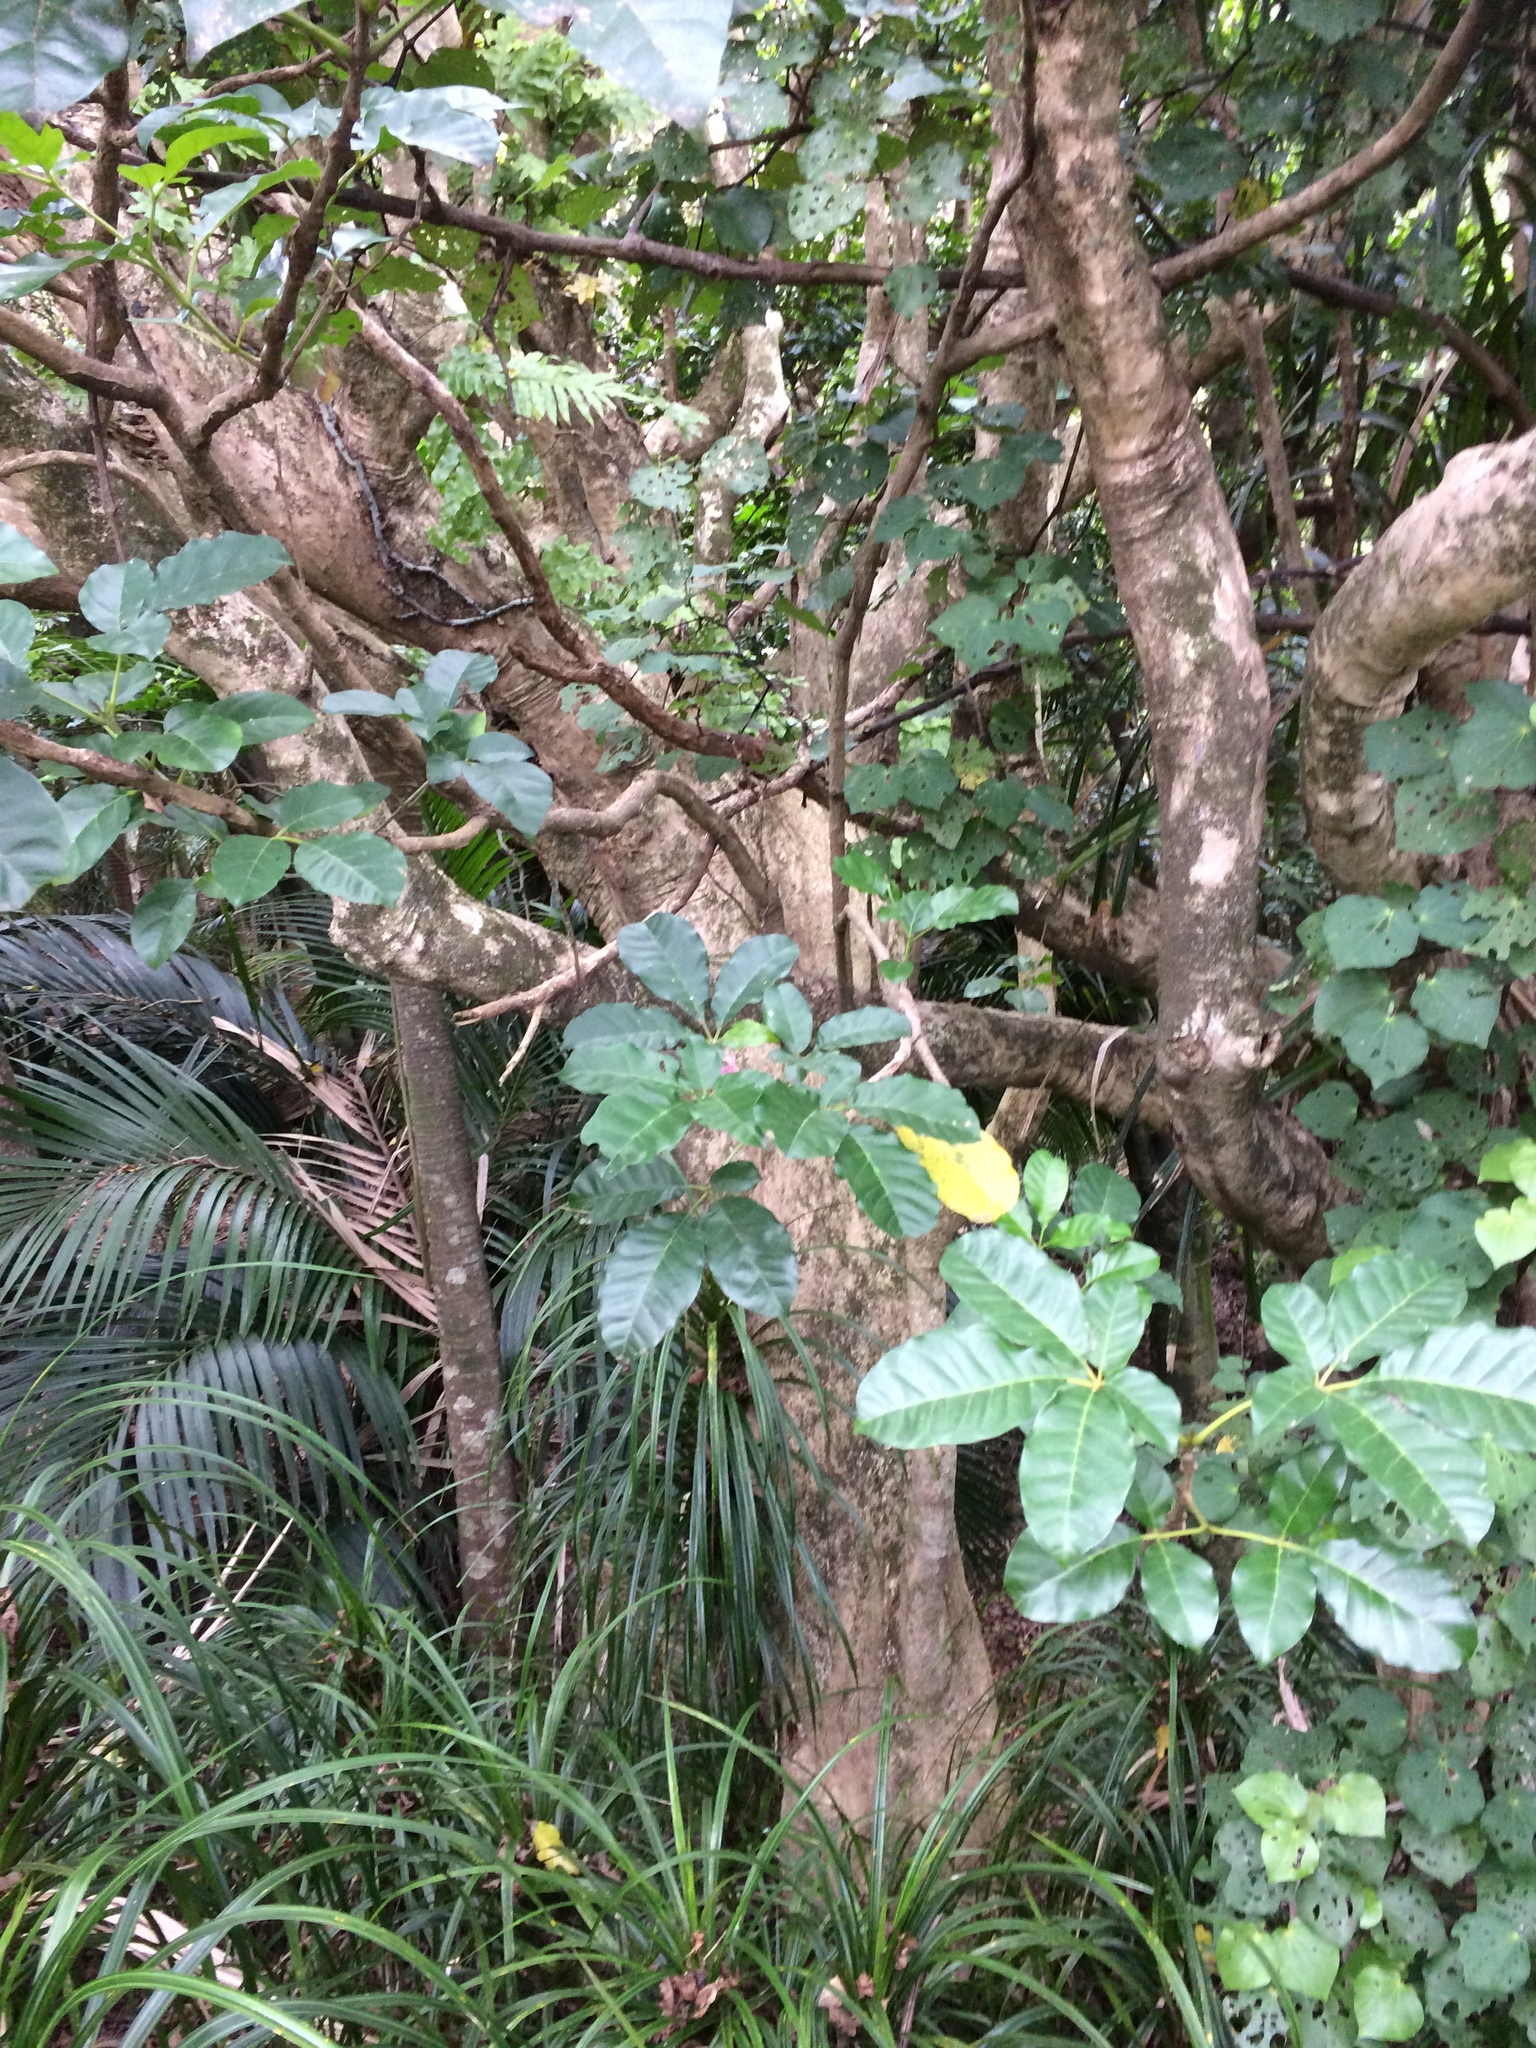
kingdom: Plantae
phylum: Tracheophyta
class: Magnoliopsida
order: Lamiales
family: Lamiaceae
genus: Vitex
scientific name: Vitex lucens
